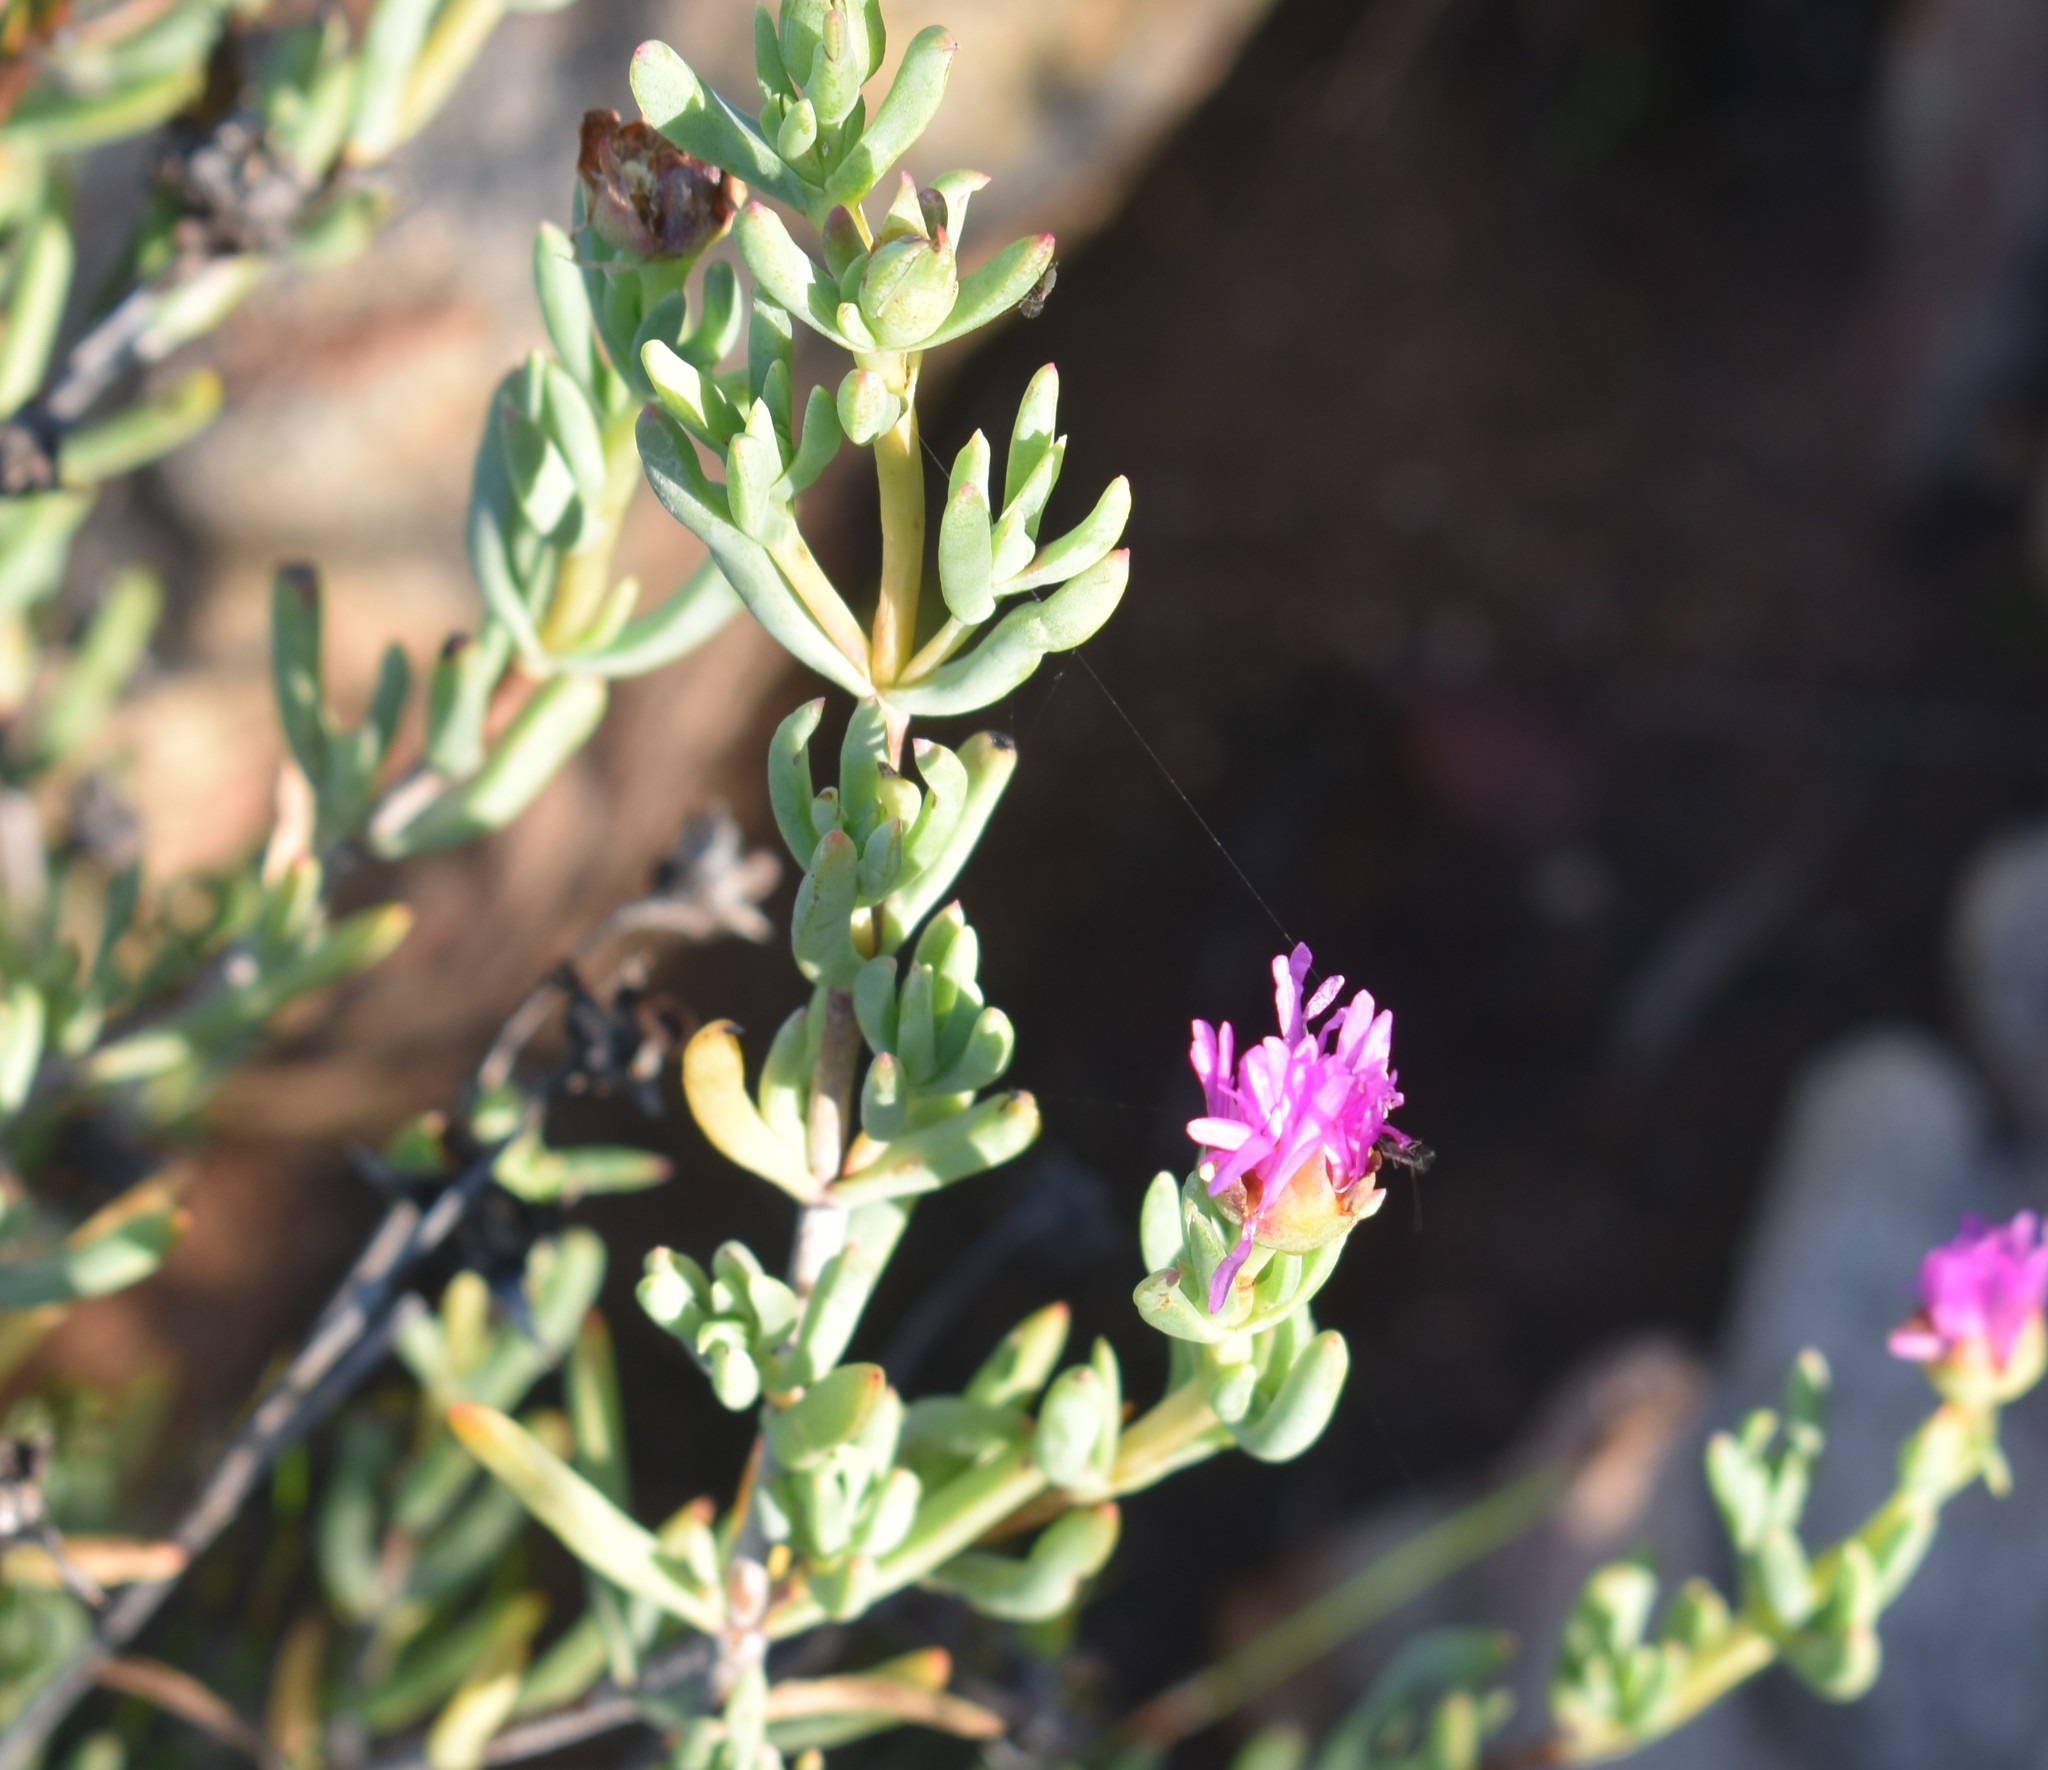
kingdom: Plantae
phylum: Tracheophyta
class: Magnoliopsida
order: Caryophyllales
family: Aizoaceae
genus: Lampranthus
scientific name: Lampranthus haworthii
